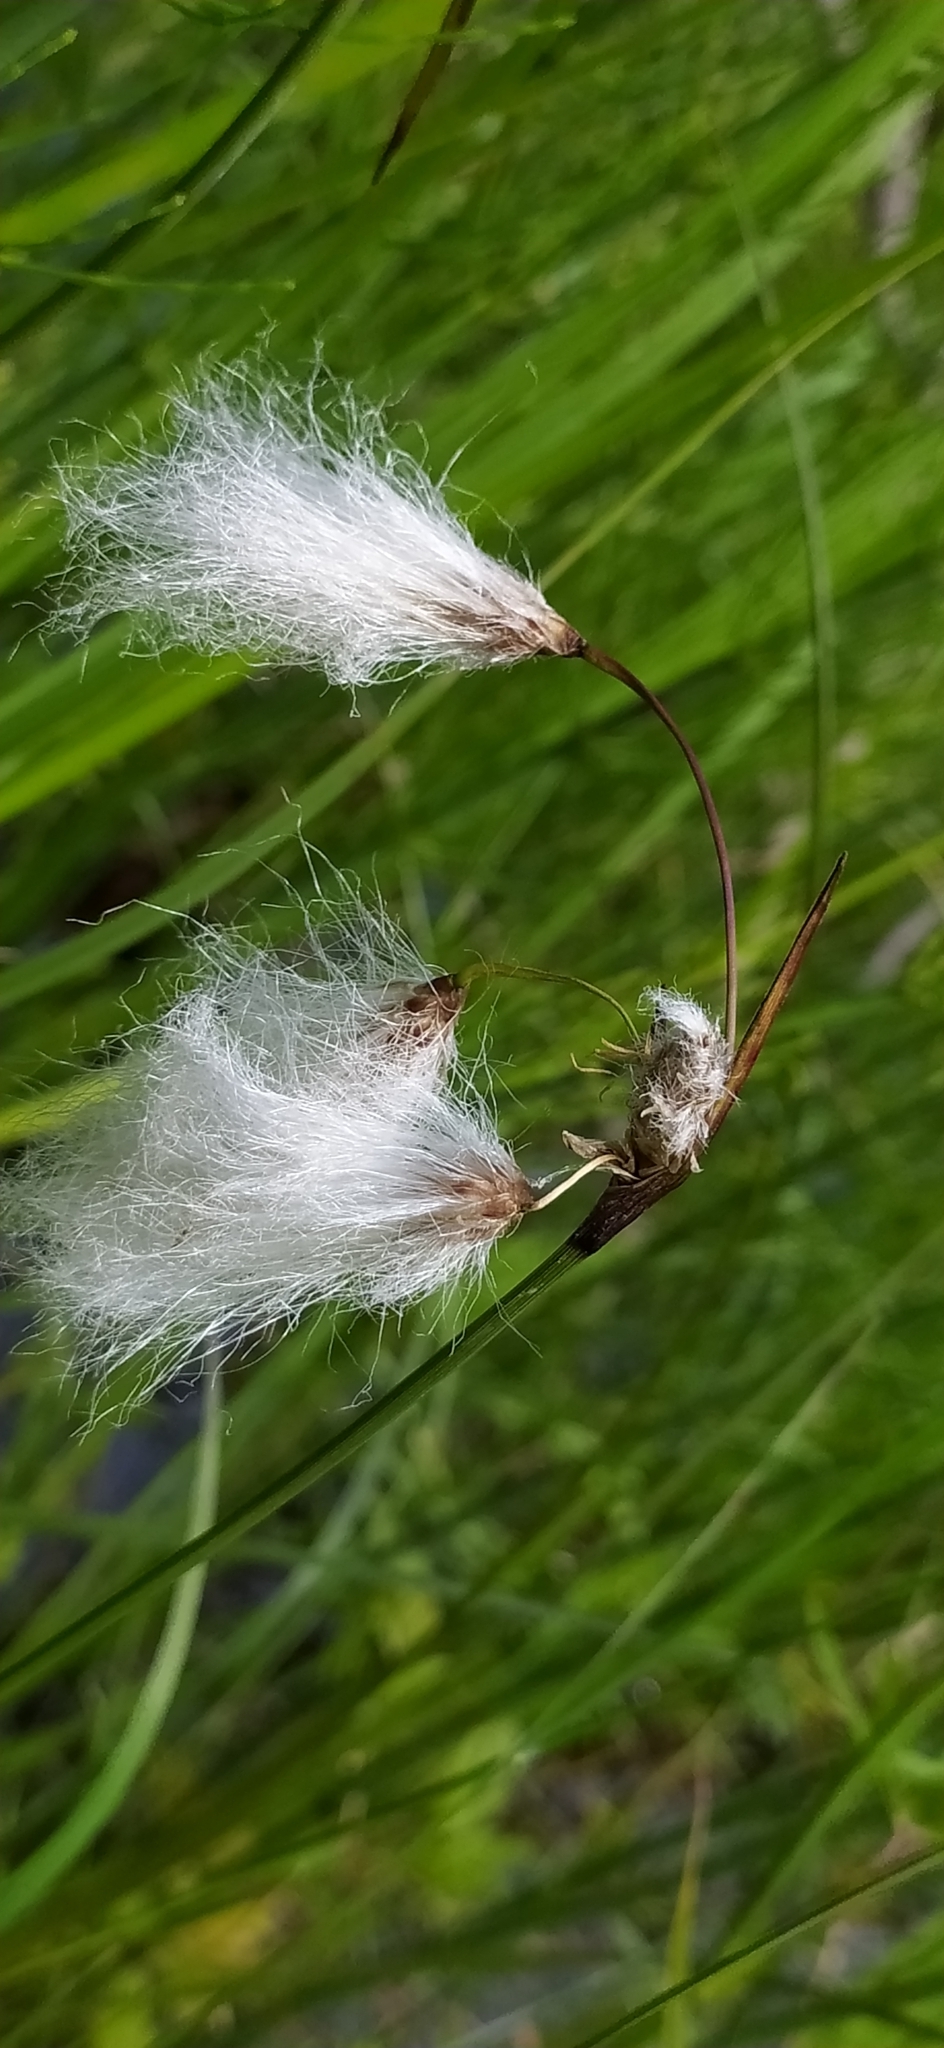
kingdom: Plantae
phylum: Tracheophyta
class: Liliopsida
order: Poales
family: Cyperaceae
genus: Eriophorum
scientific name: Eriophorum vaginatum
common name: Hare's-tail cottongrass
